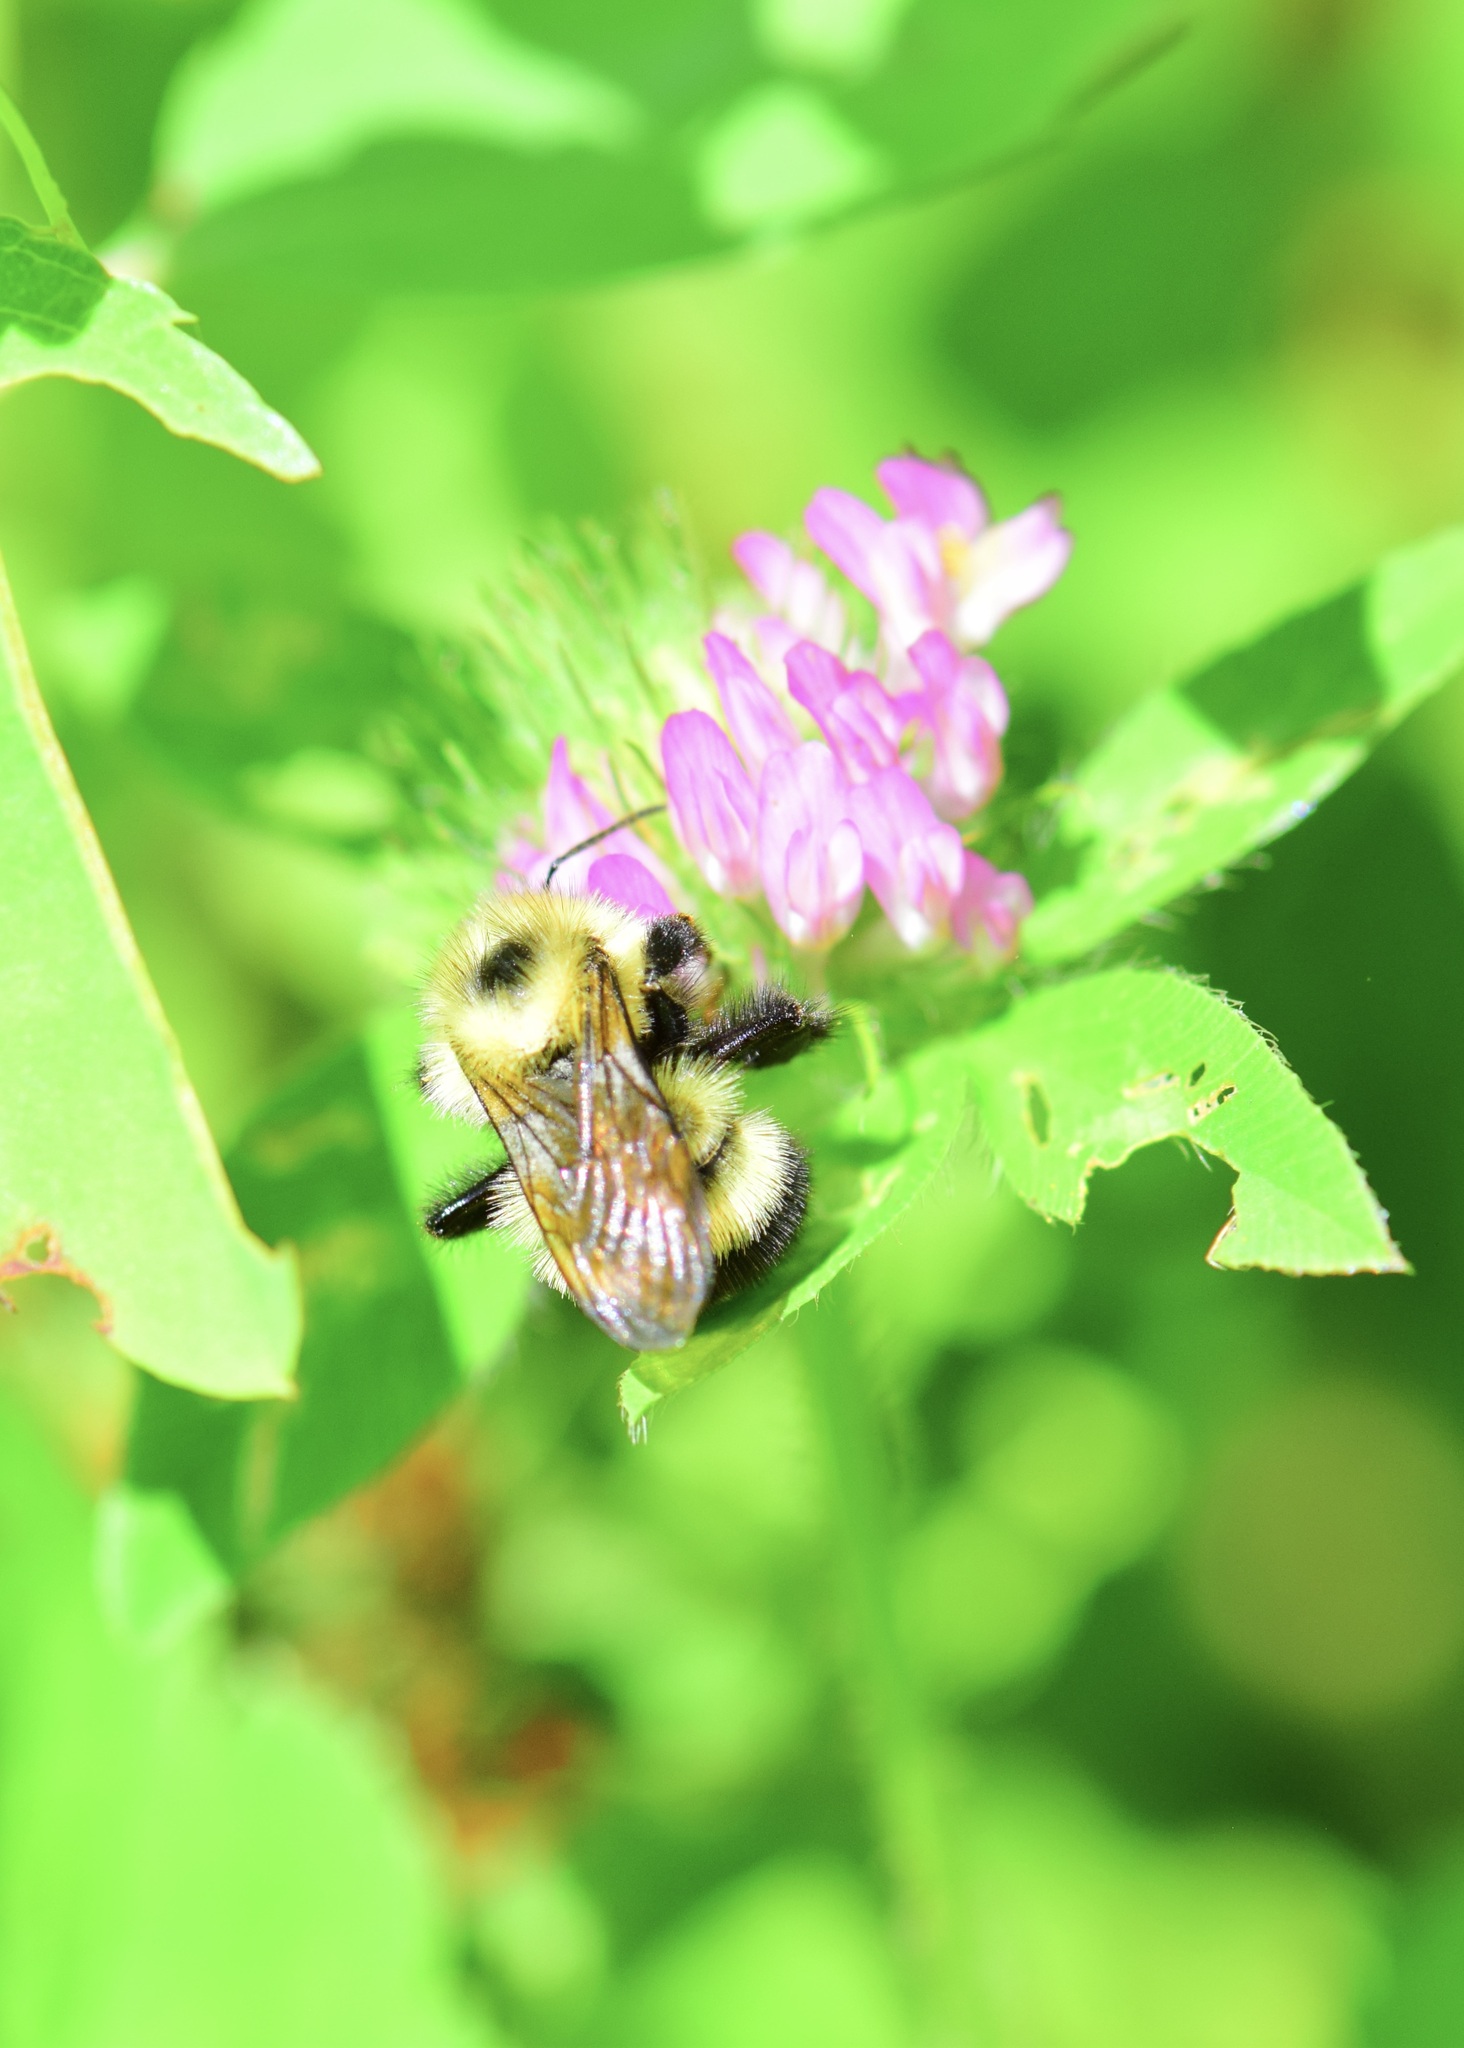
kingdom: Animalia
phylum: Arthropoda
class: Insecta
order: Hymenoptera
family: Apidae
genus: Pyrobombus
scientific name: Pyrobombus
